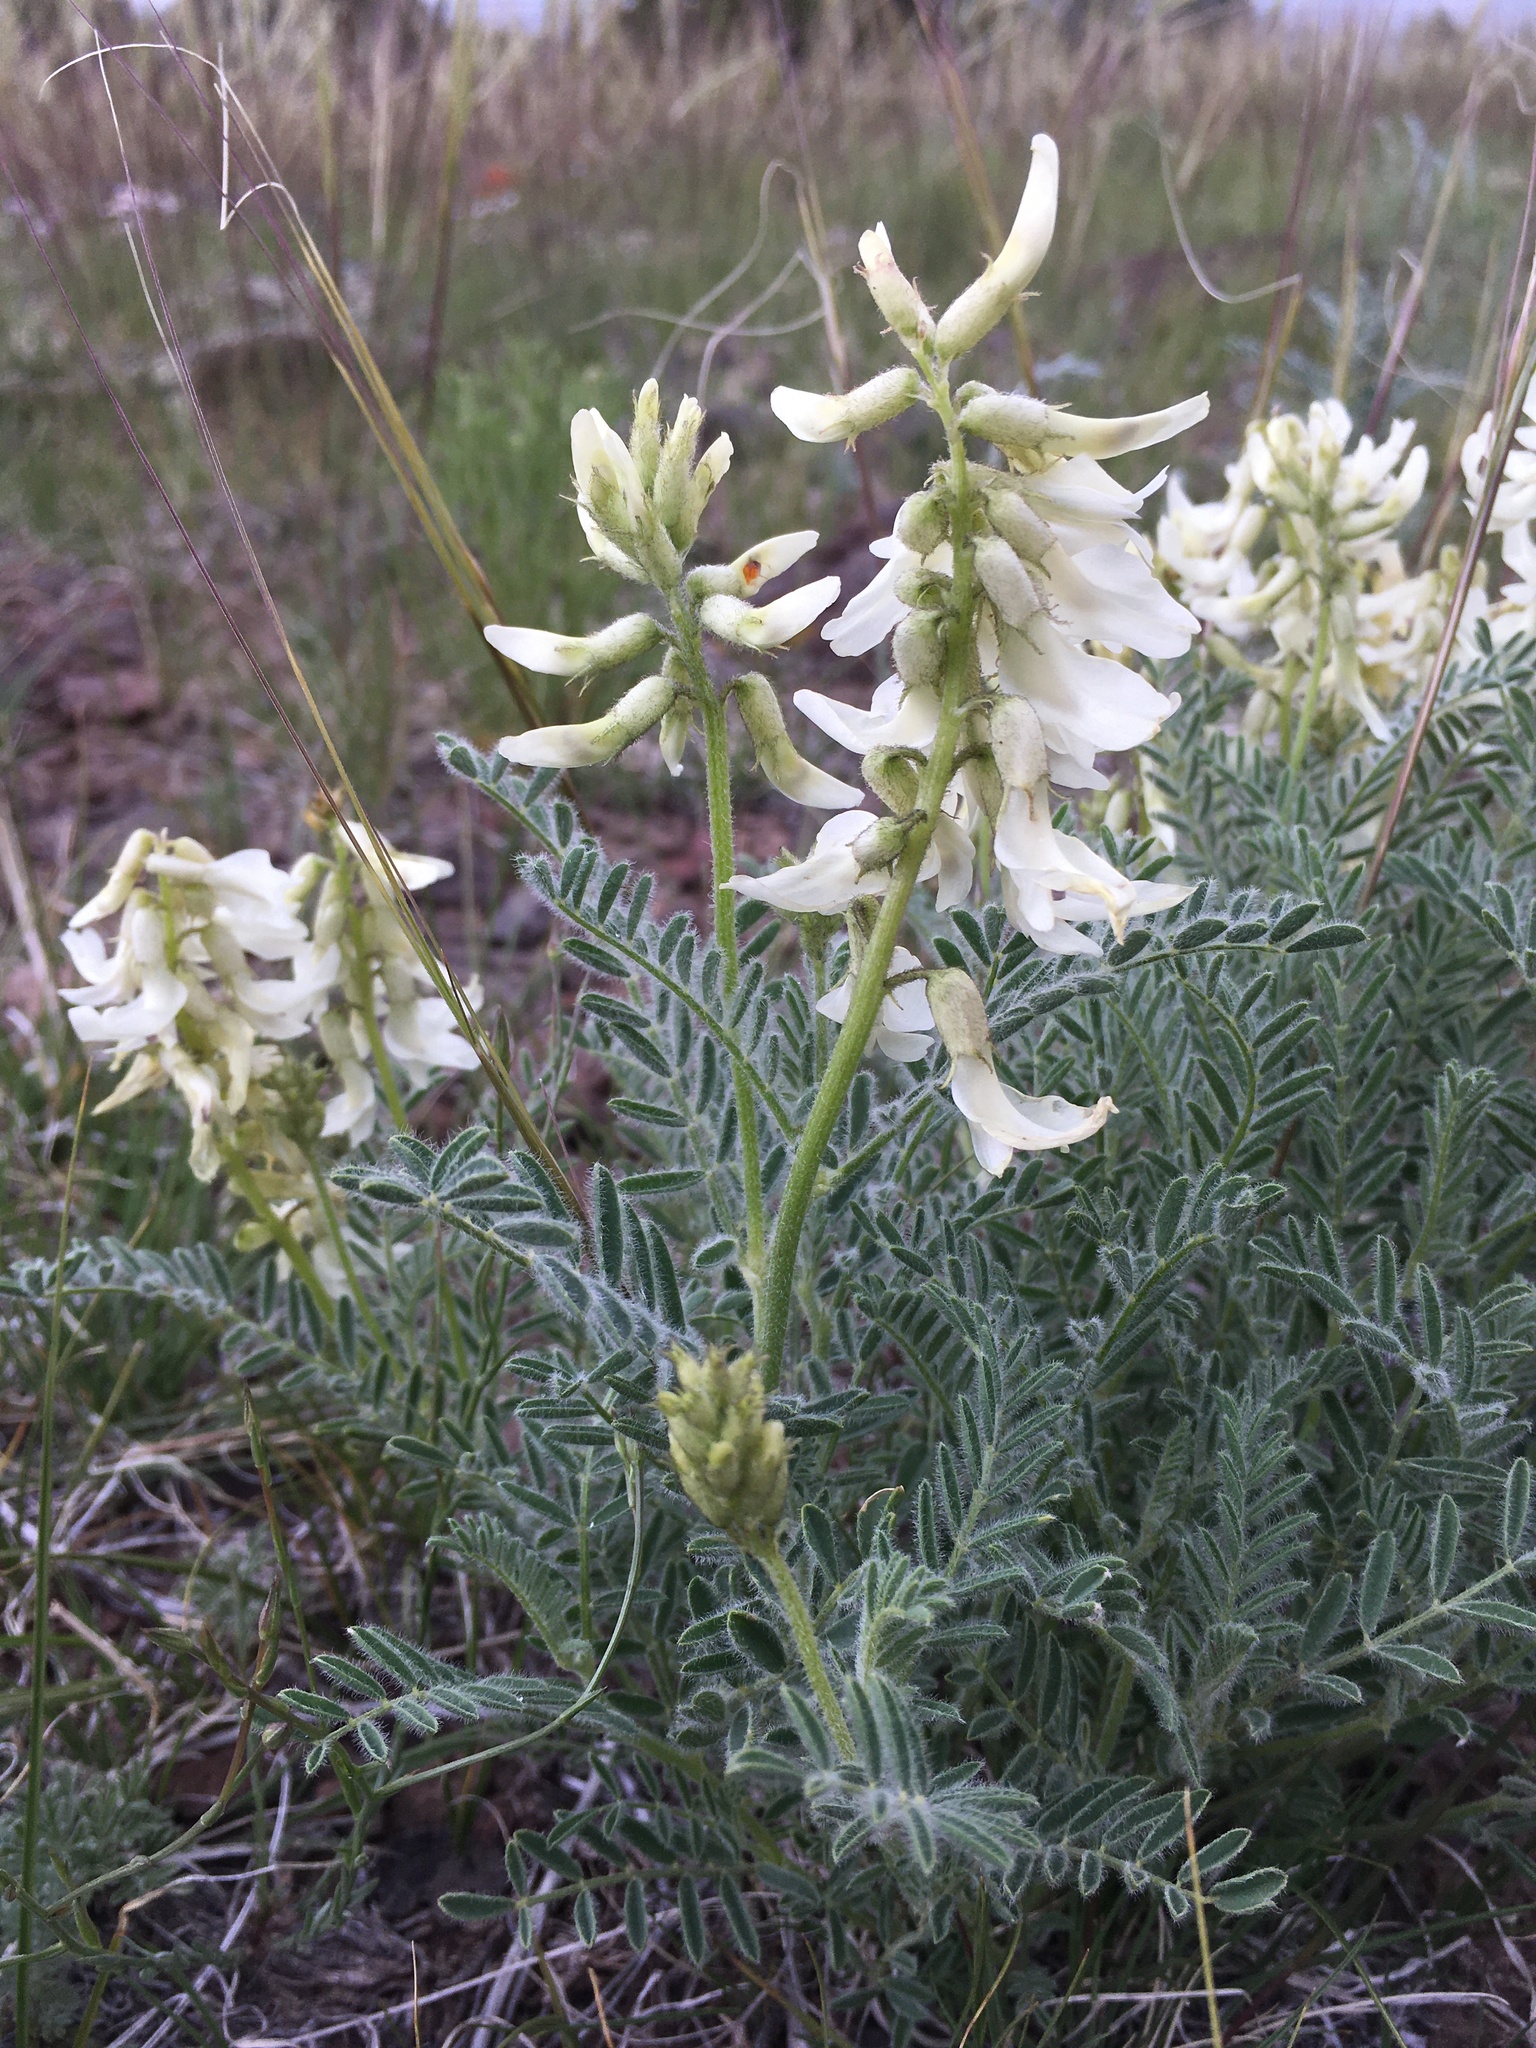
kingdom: Plantae
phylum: Tracheophyta
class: Magnoliopsida
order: Fabales
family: Fabaceae
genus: Astragalus
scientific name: Astragalus drummondii
